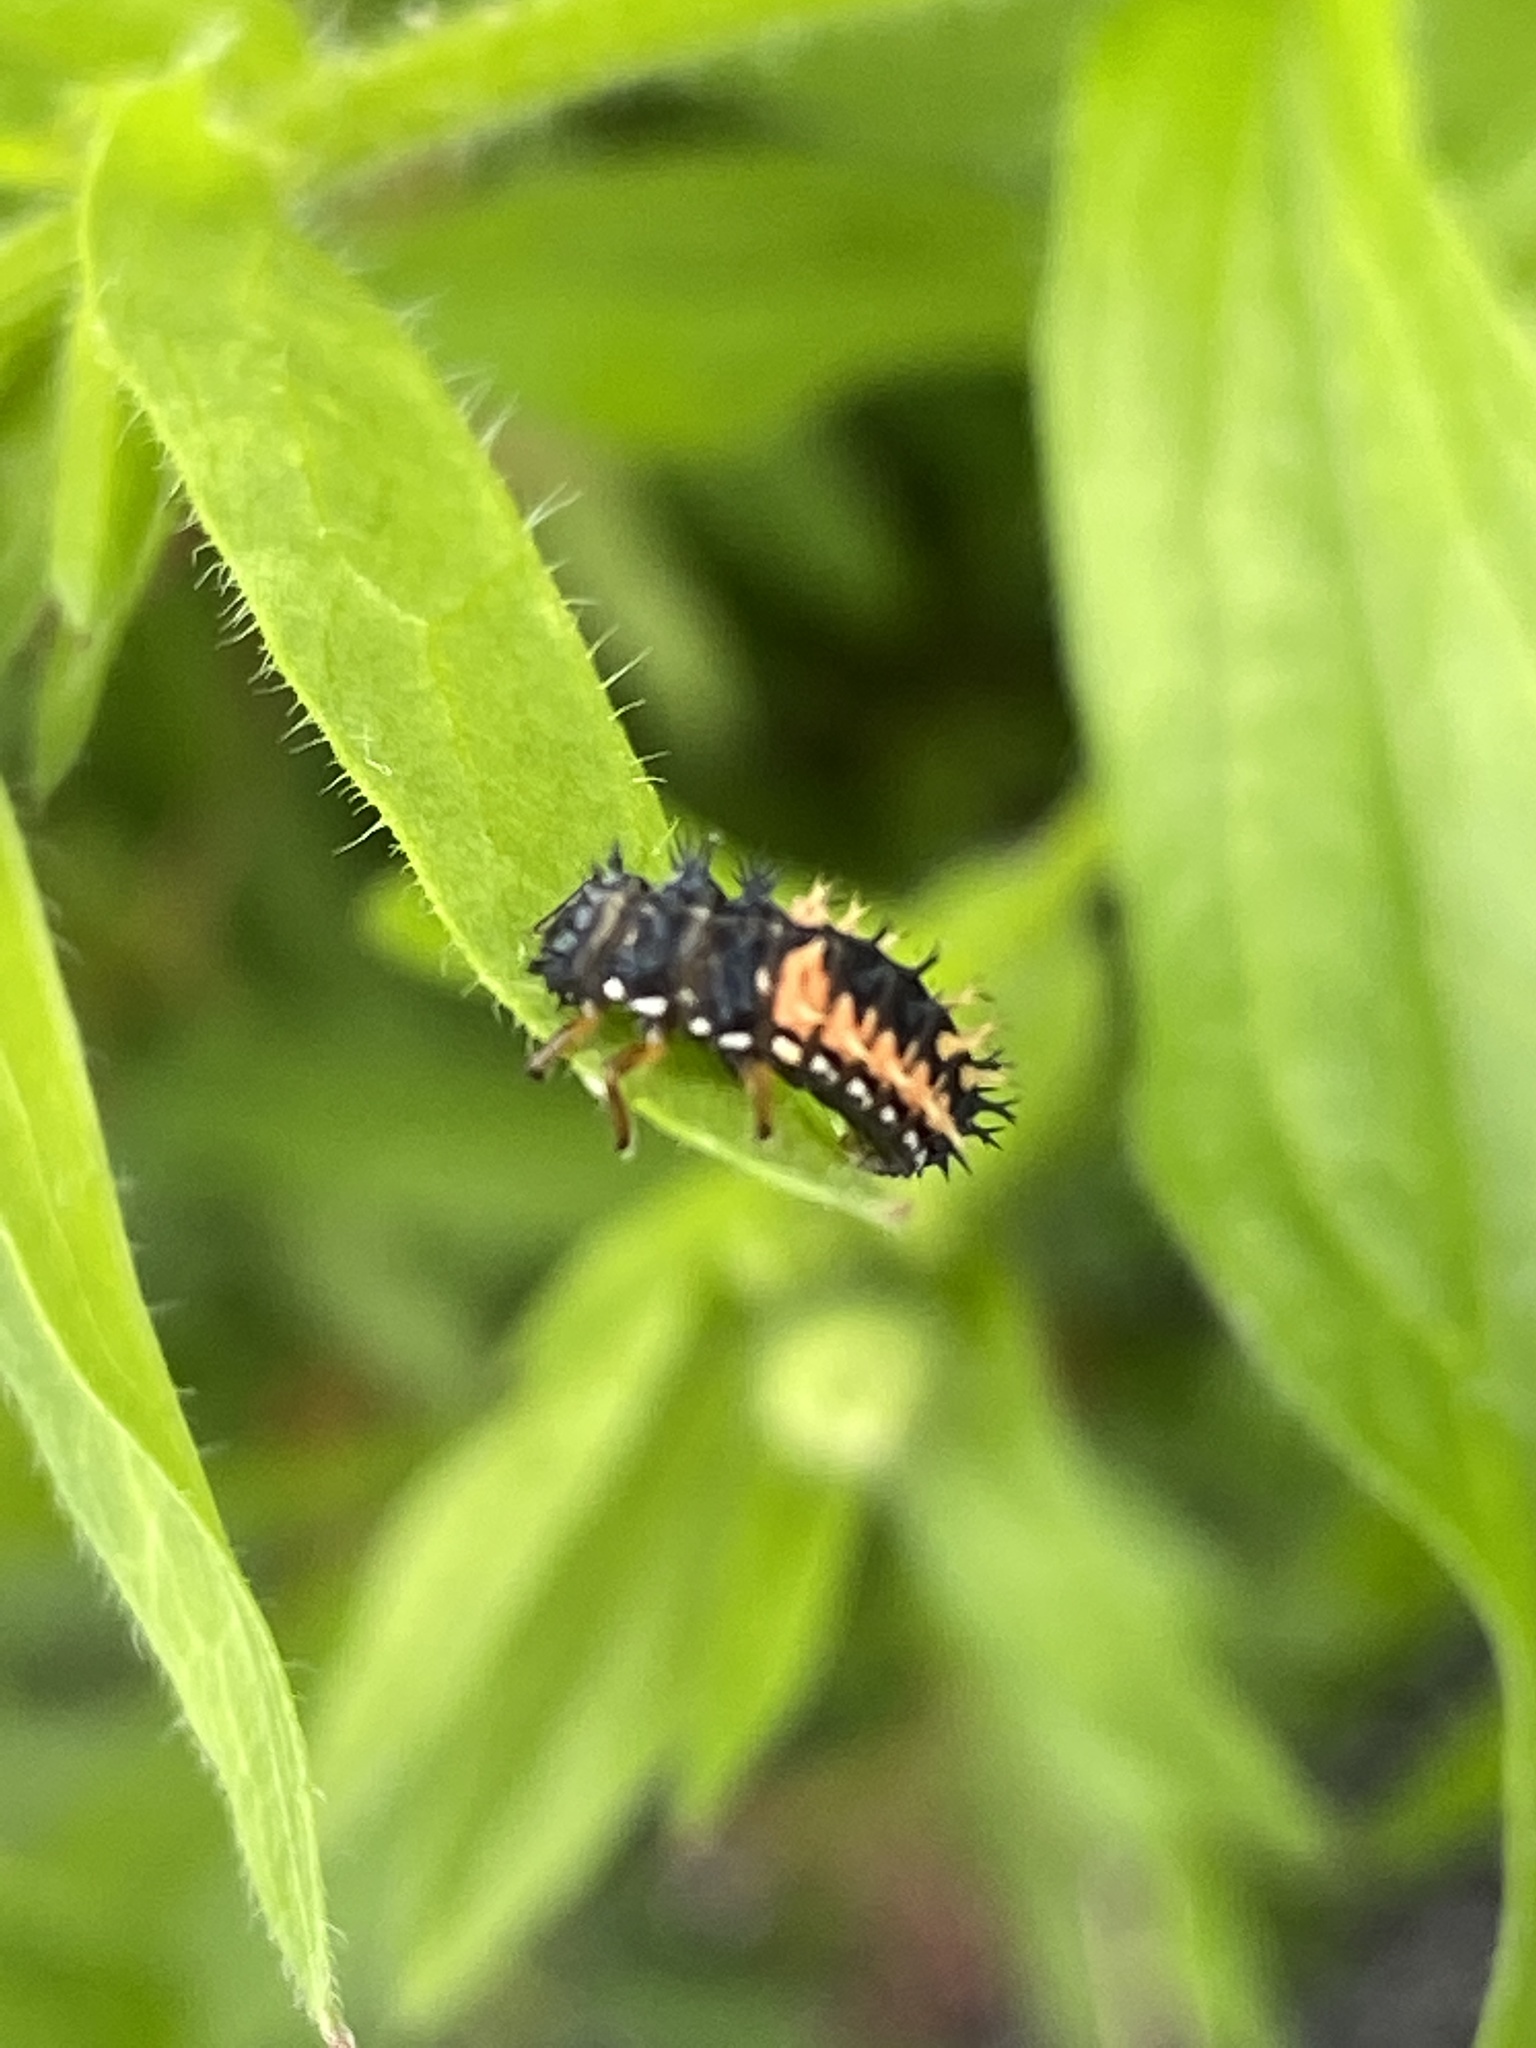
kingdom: Animalia
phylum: Arthropoda
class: Insecta
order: Coleoptera
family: Coccinellidae
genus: Harmonia
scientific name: Harmonia axyridis
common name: Harlequin ladybird
